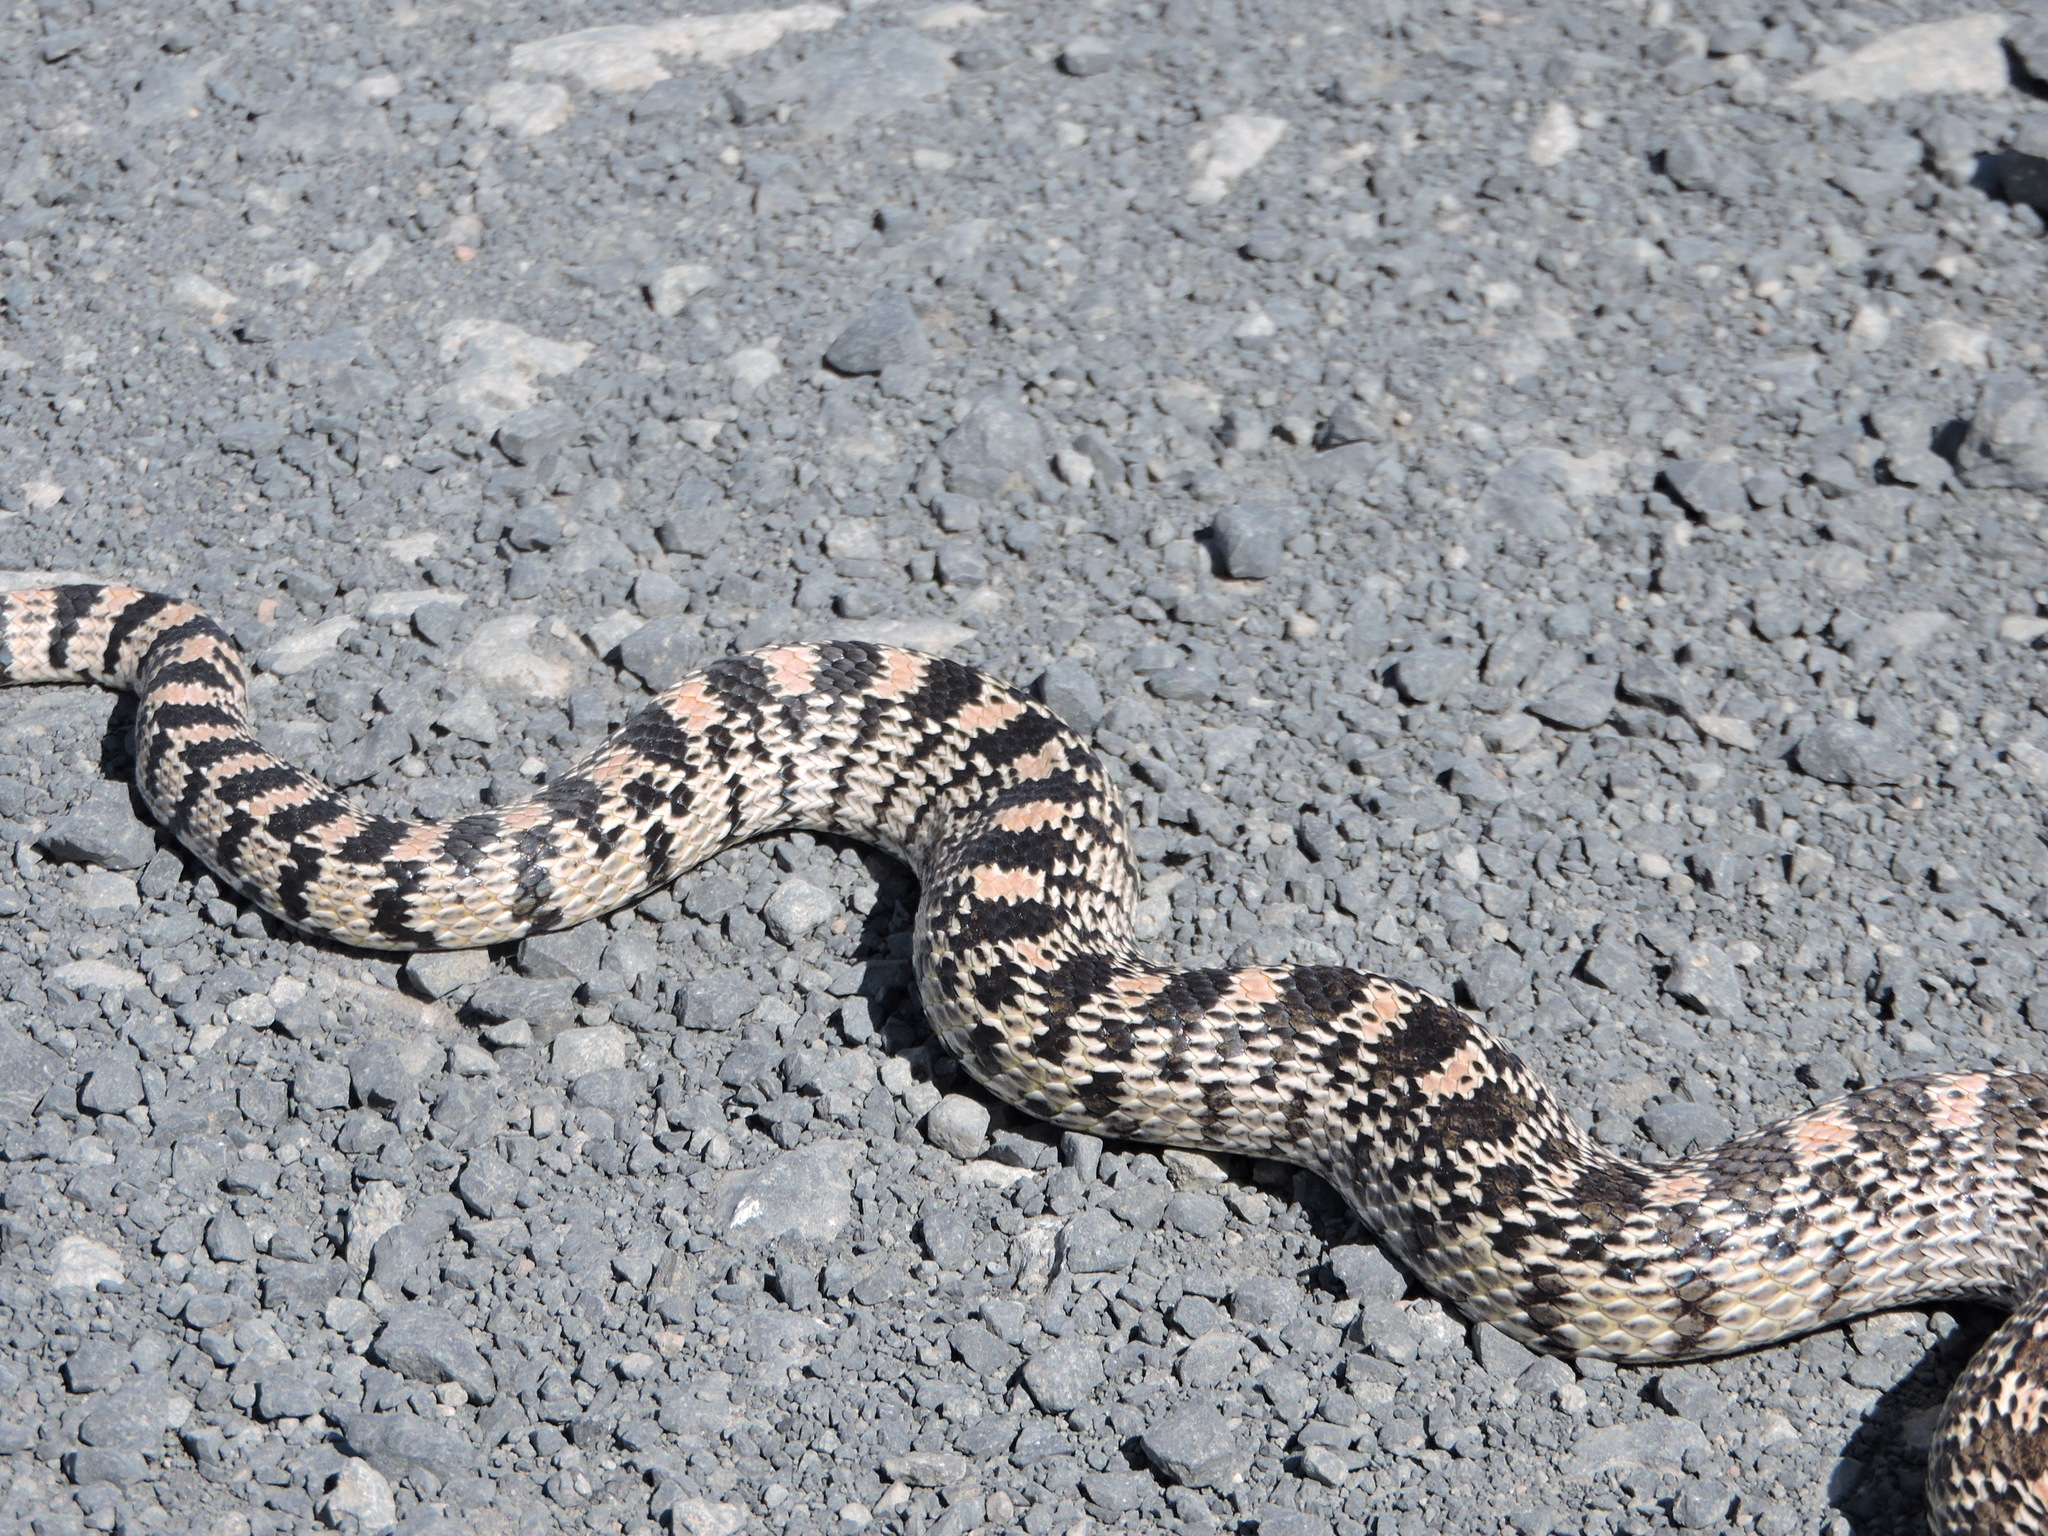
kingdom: Animalia
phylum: Chordata
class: Squamata
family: Colubridae
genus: Pituophis
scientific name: Pituophis catenifer
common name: Gopher snake
